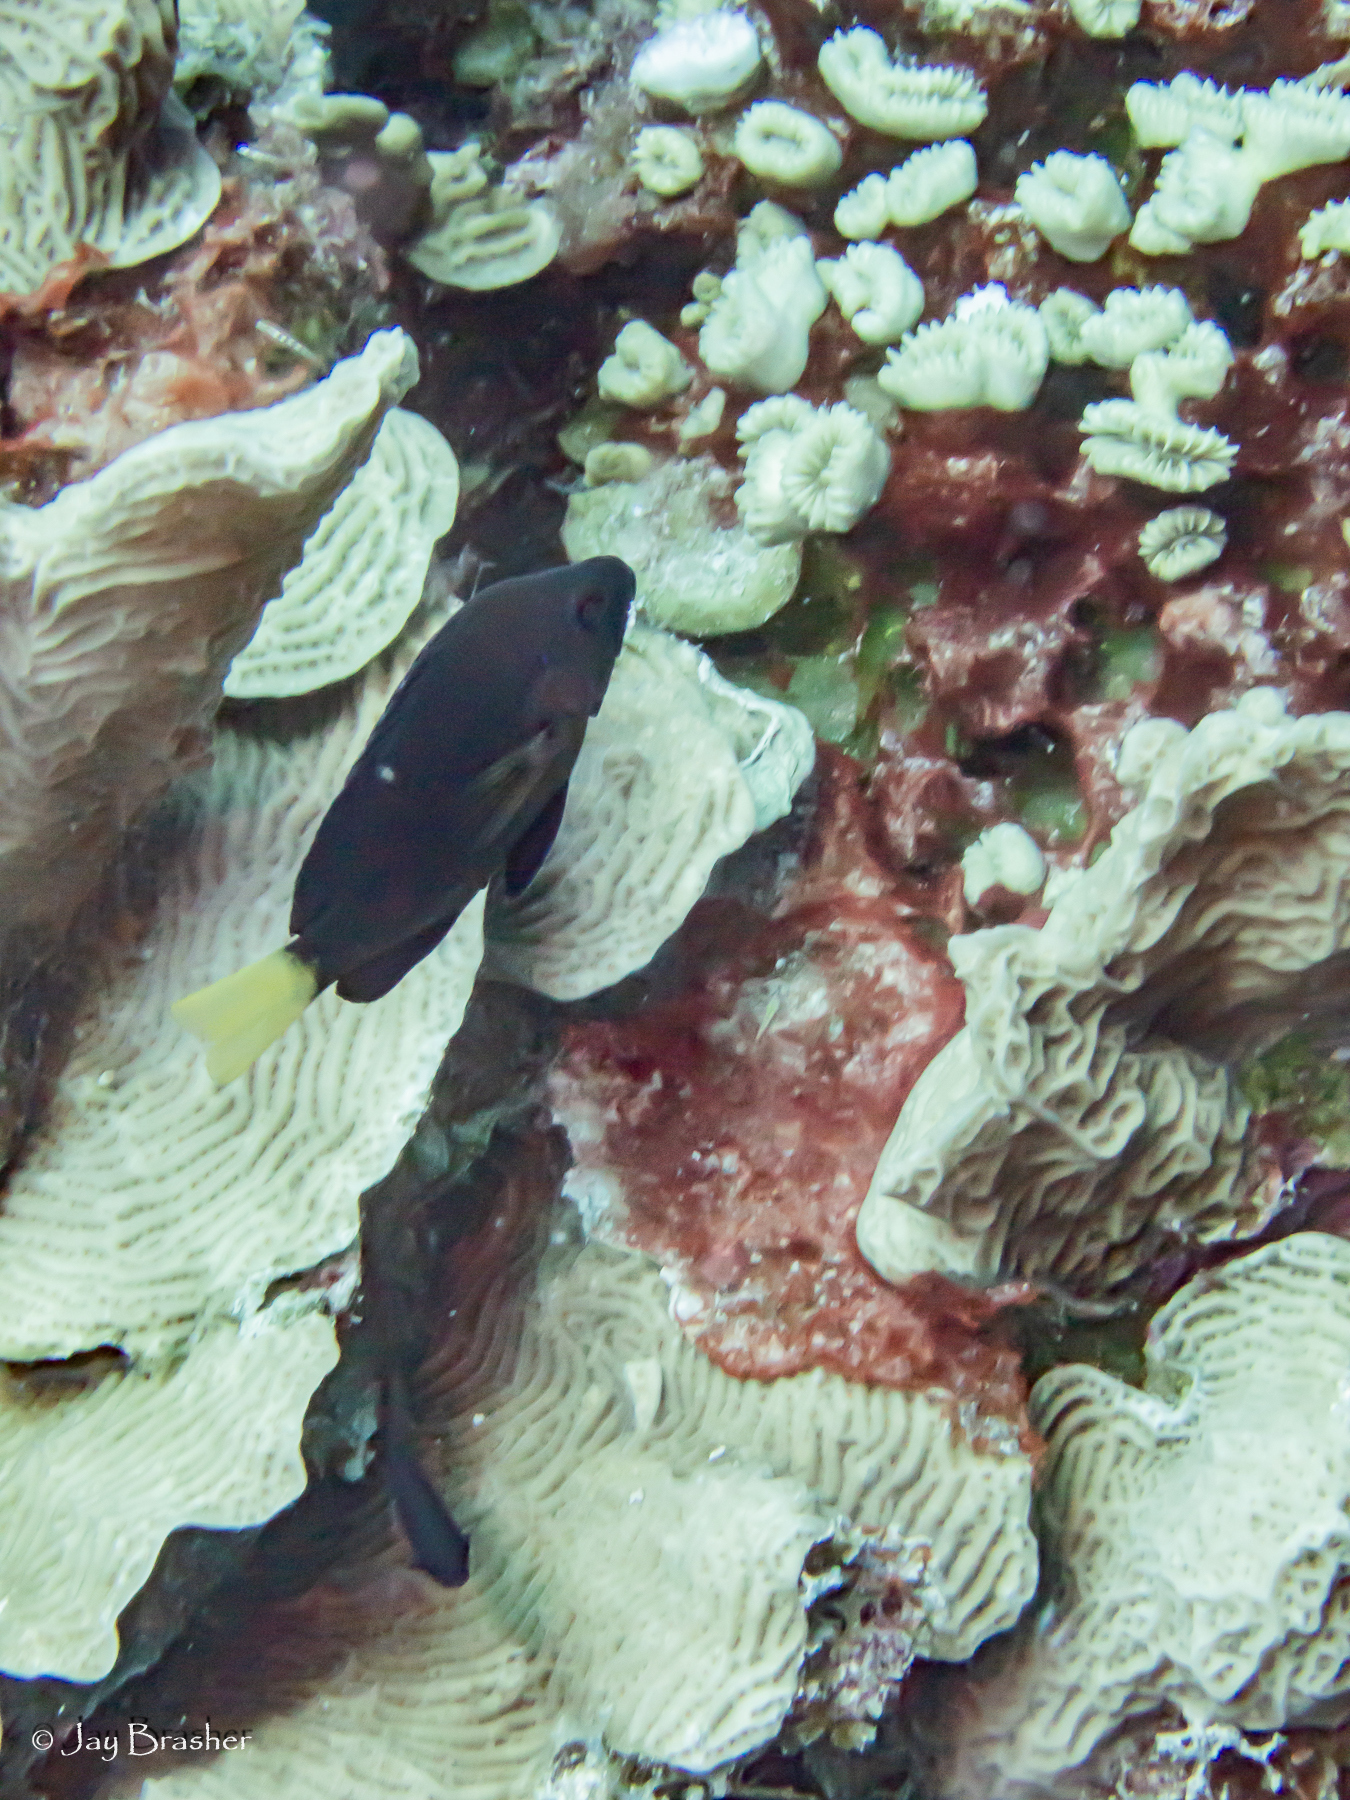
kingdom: Animalia
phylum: Chordata
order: Perciformes
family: Serranidae
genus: Hypoplectrus
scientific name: Hypoplectrus chlorurus
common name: Yellowtail hamlet
